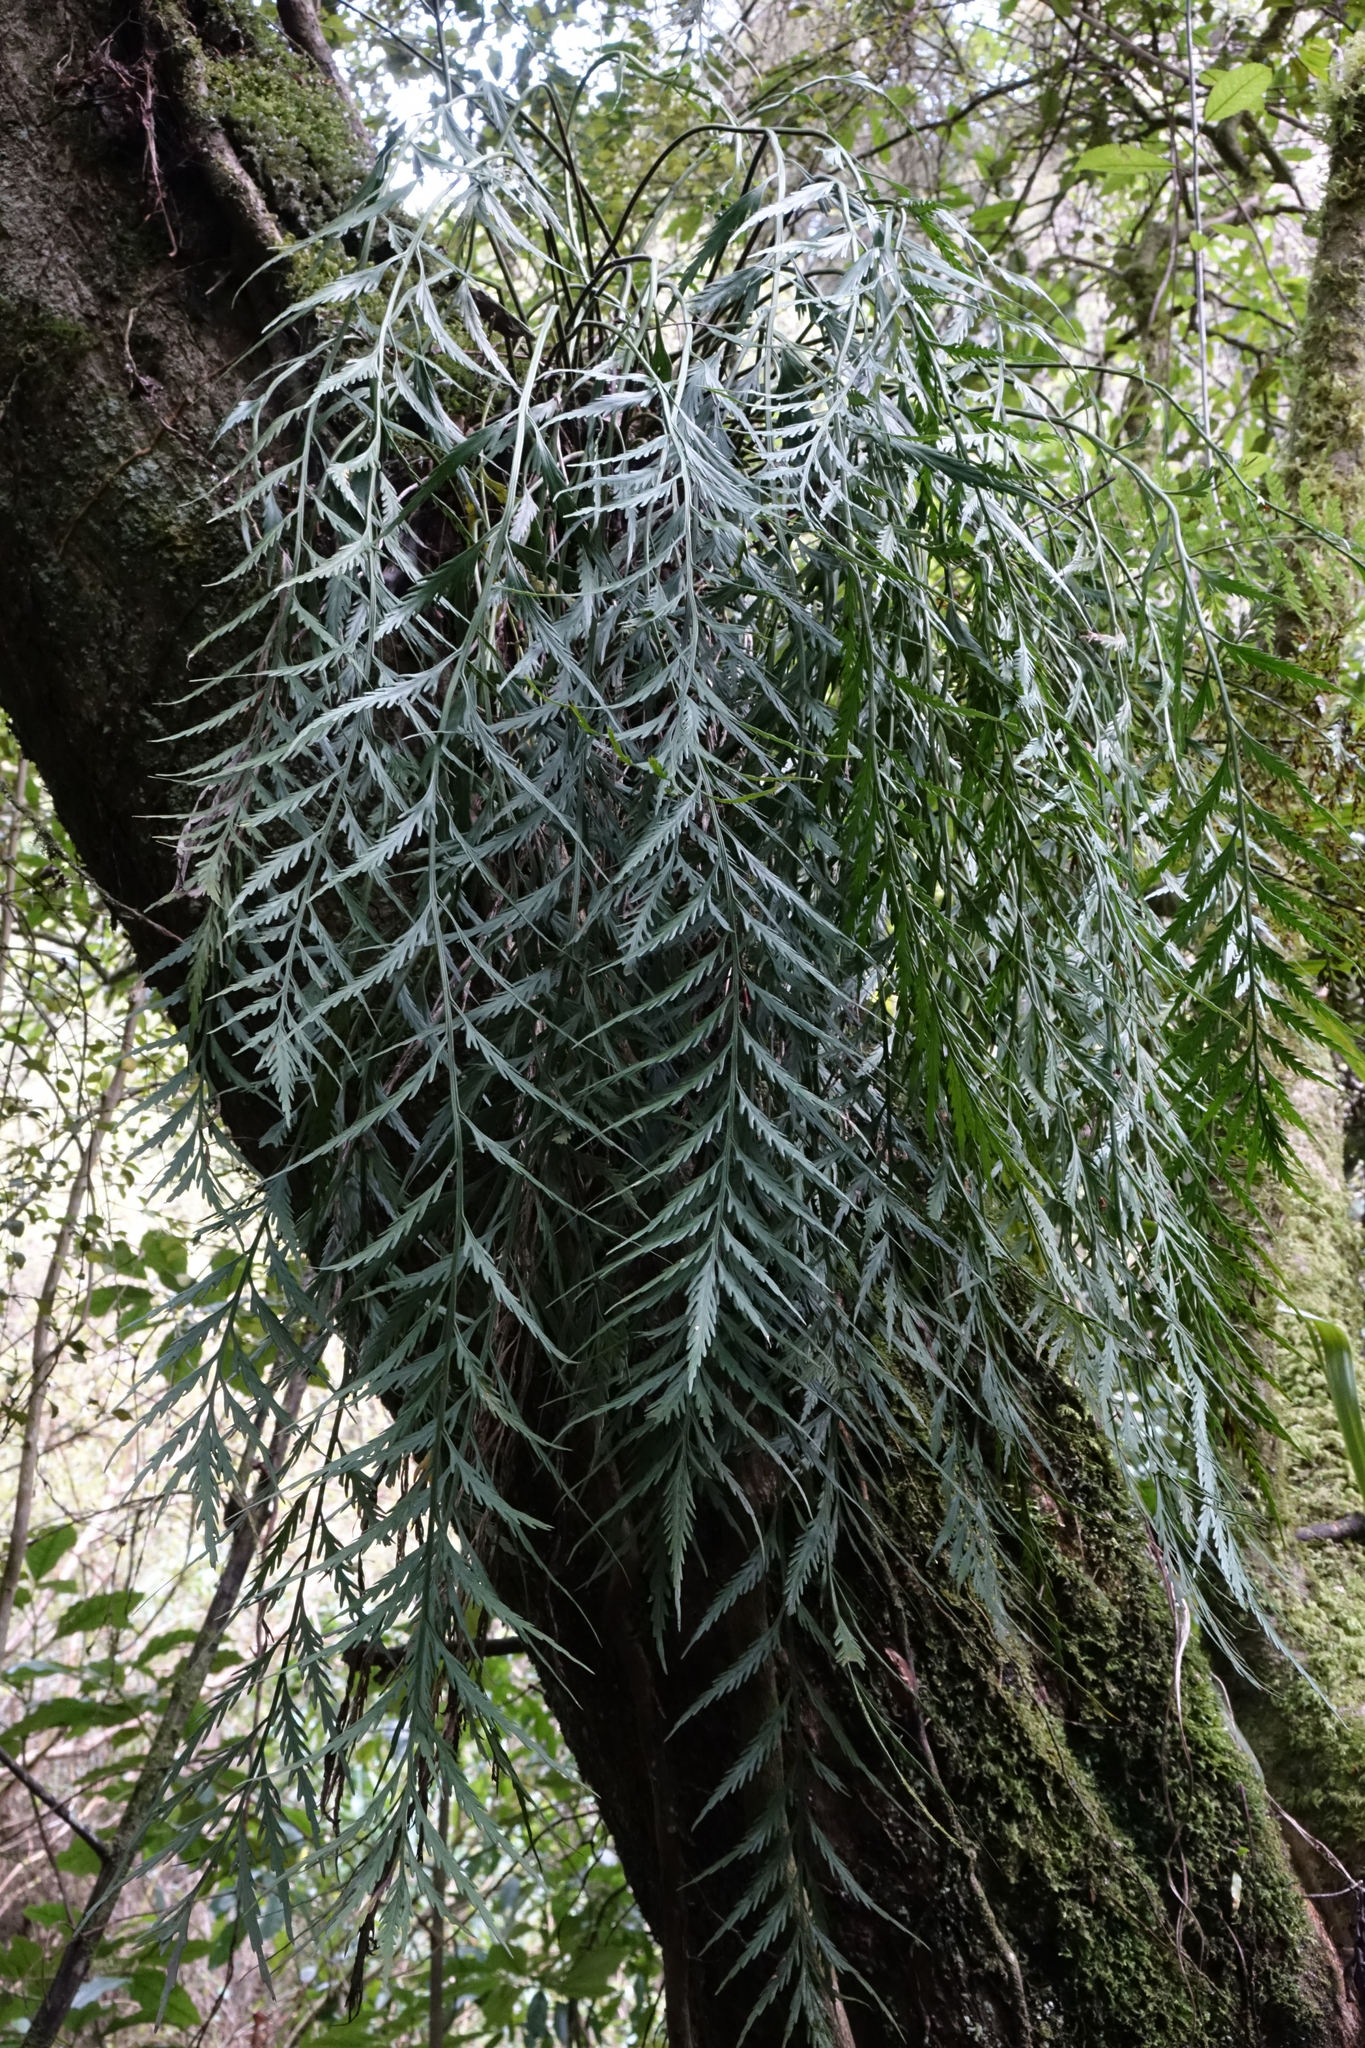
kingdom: Plantae
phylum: Tracheophyta
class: Polypodiopsida
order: Polypodiales
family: Aspleniaceae
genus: Asplenium
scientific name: Asplenium flaccidum
